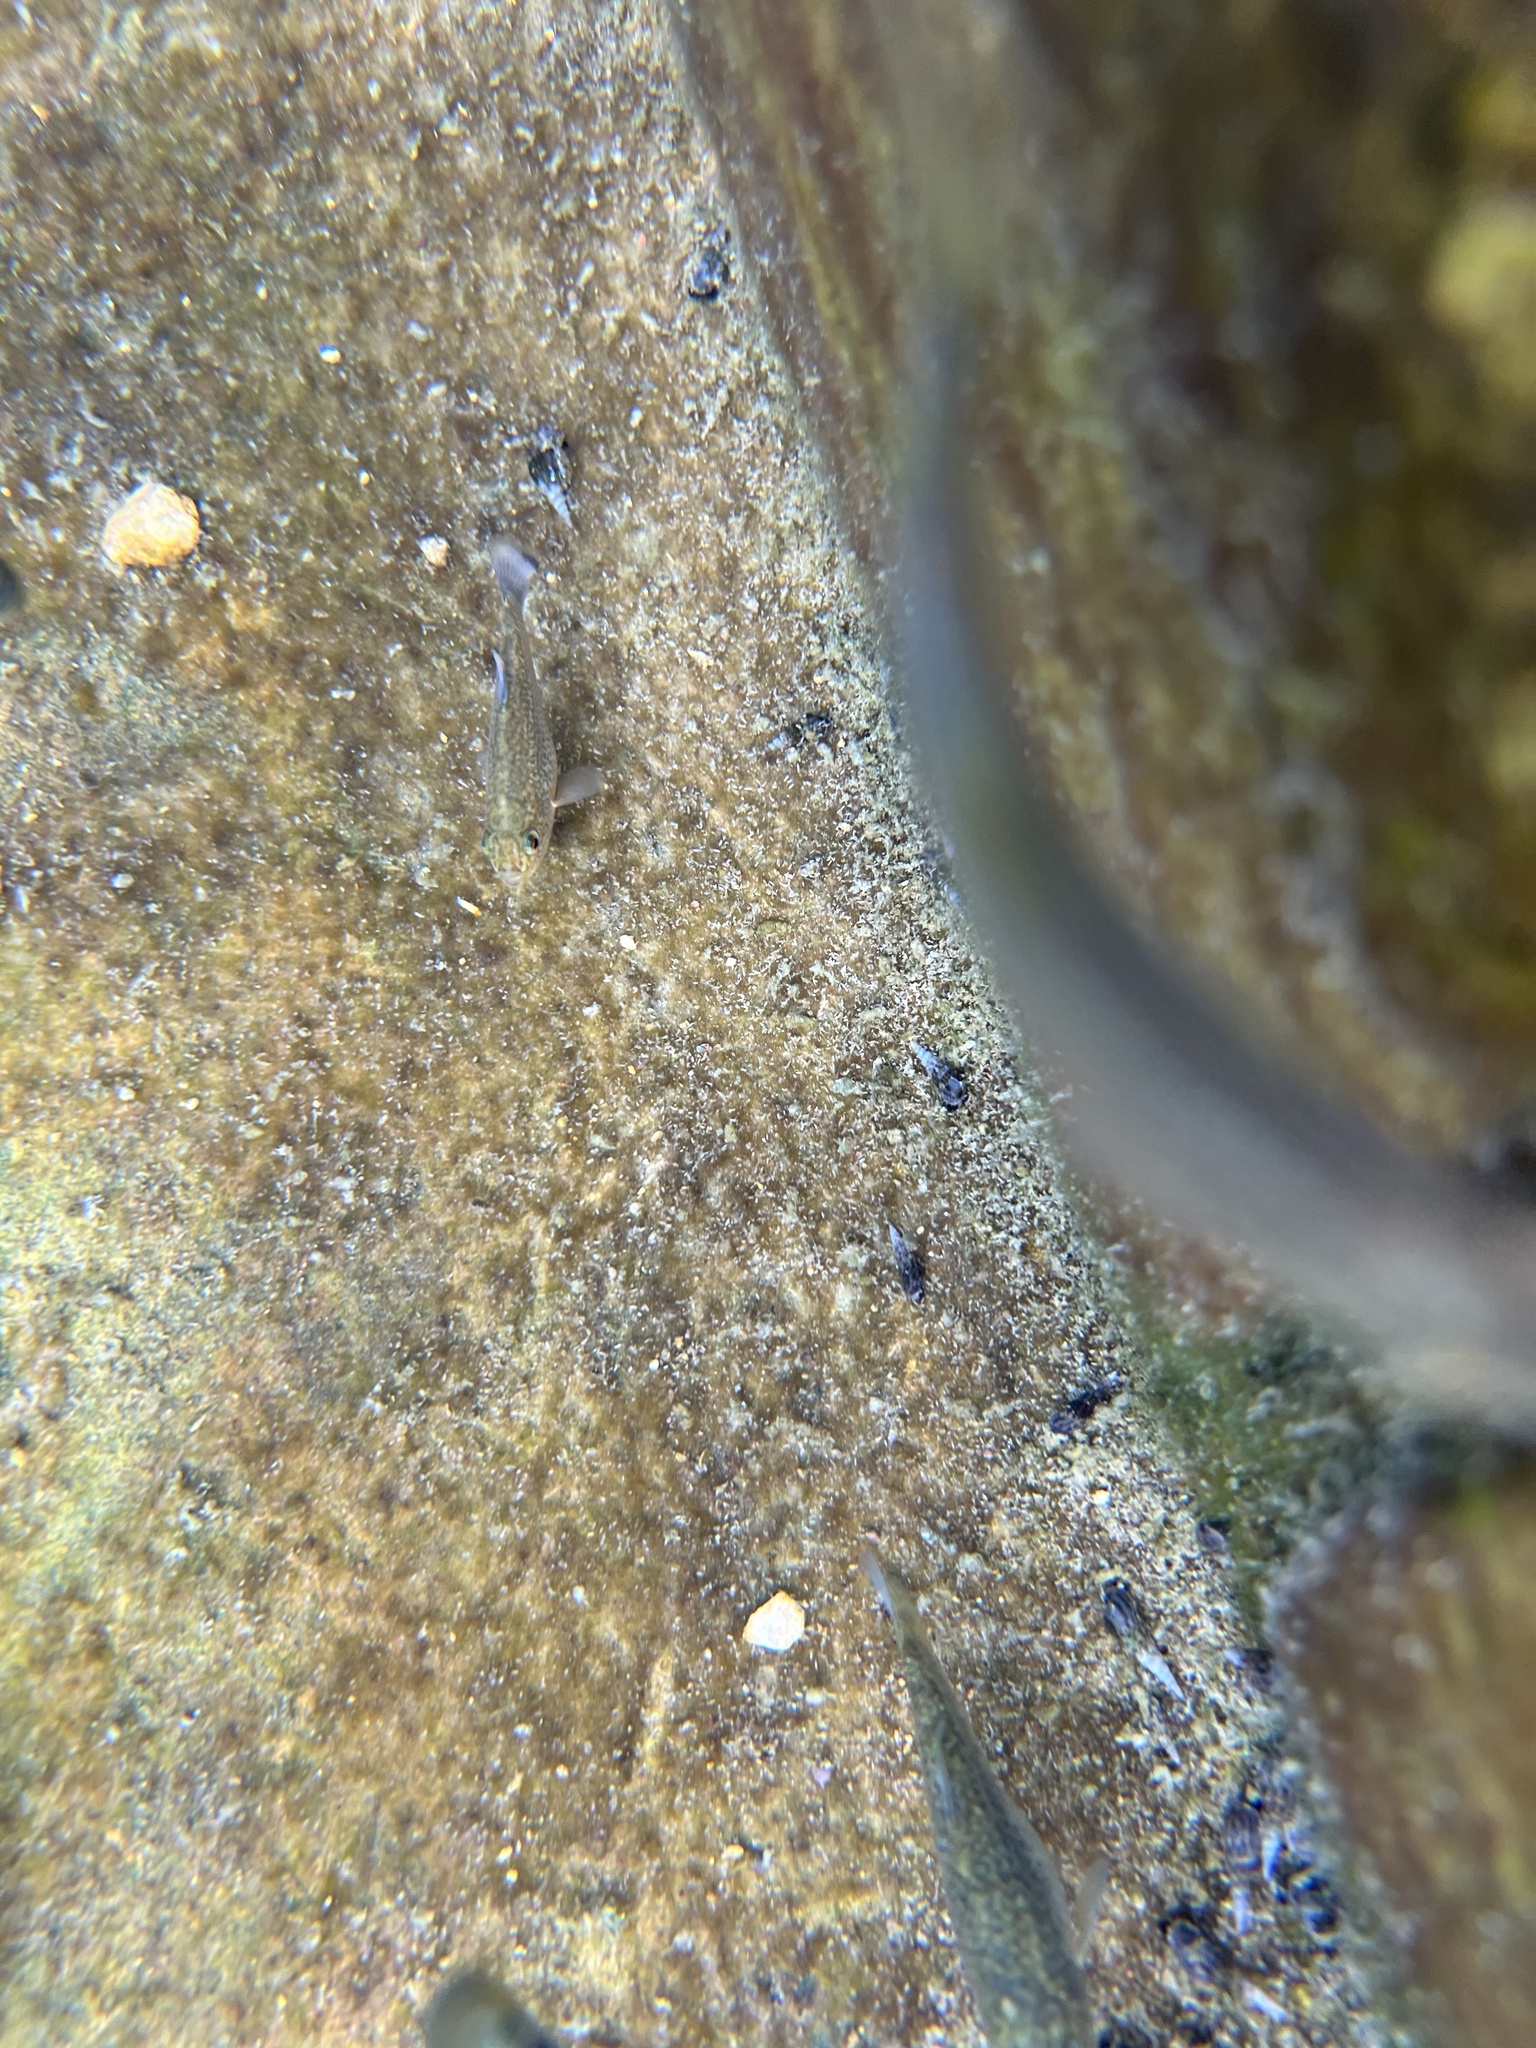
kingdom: Animalia
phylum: Chordata
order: Cyprinodontiformes
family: Cyprinodontidae
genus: Cyprinodon
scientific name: Cyprinodon elegans
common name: Comanche springs pupfish
